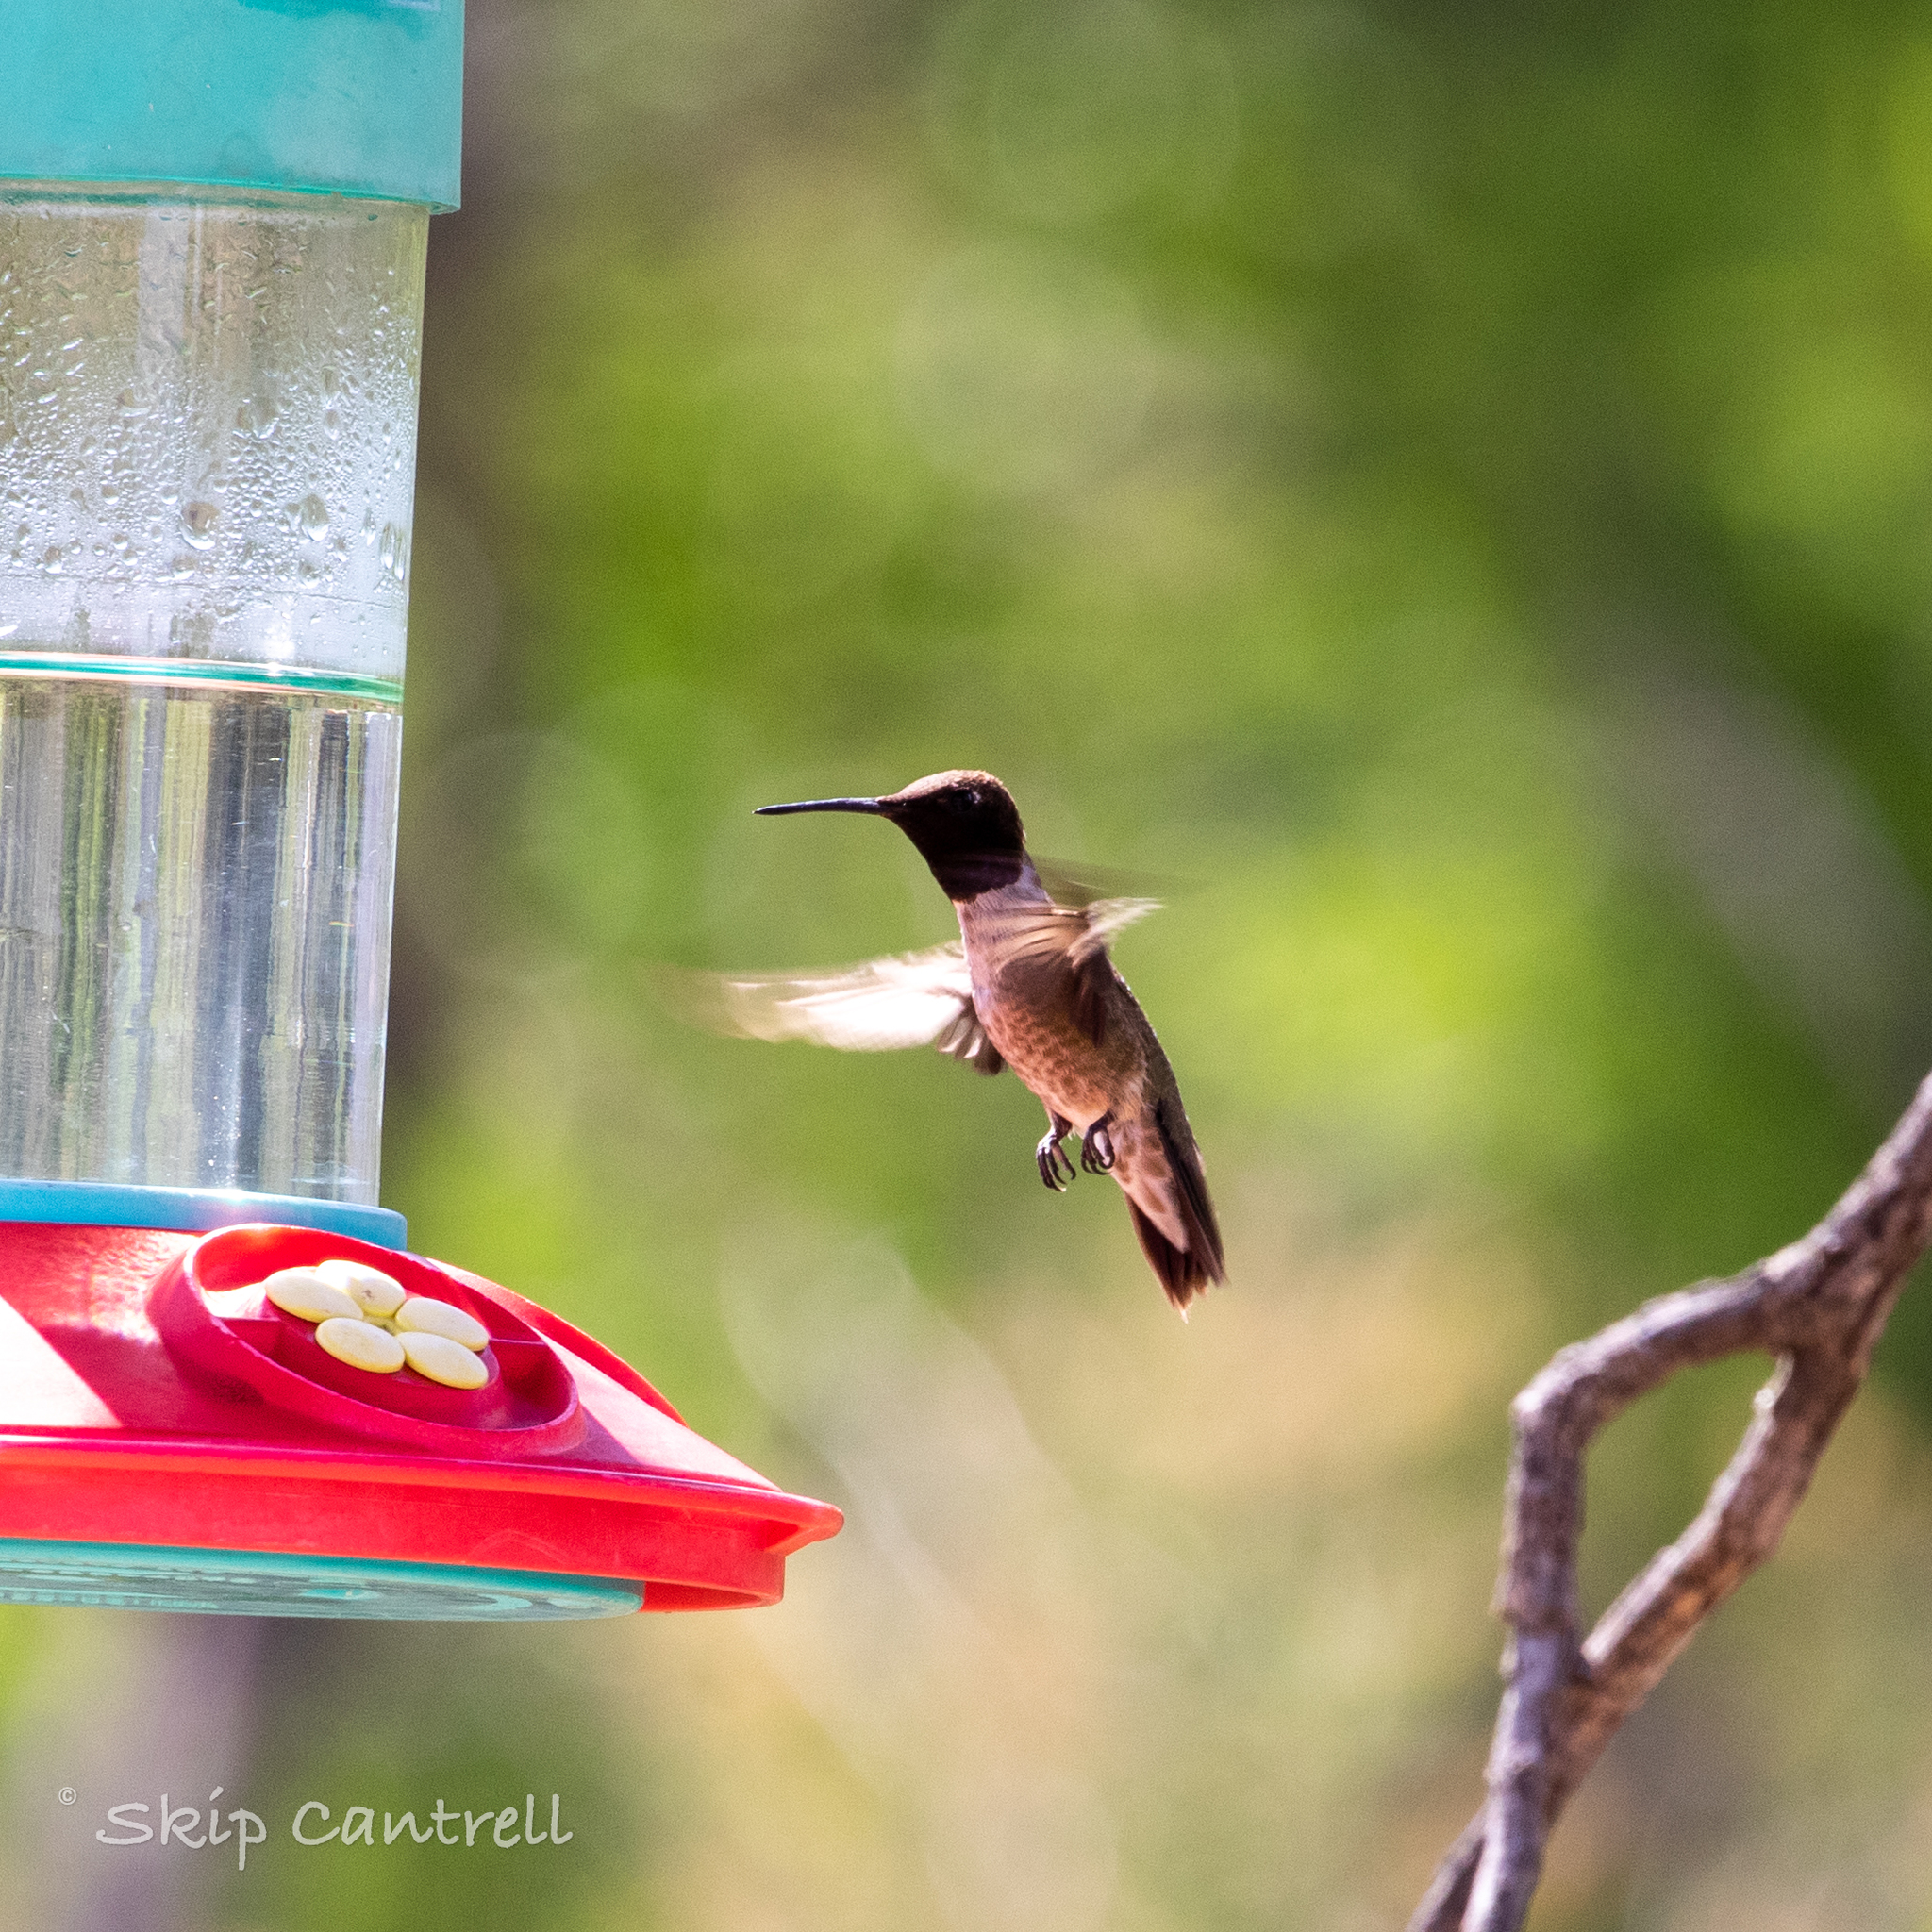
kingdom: Animalia
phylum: Chordata
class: Aves
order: Apodiformes
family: Trochilidae
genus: Archilochus
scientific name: Archilochus alexandri
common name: Black-chinned hummingbird
